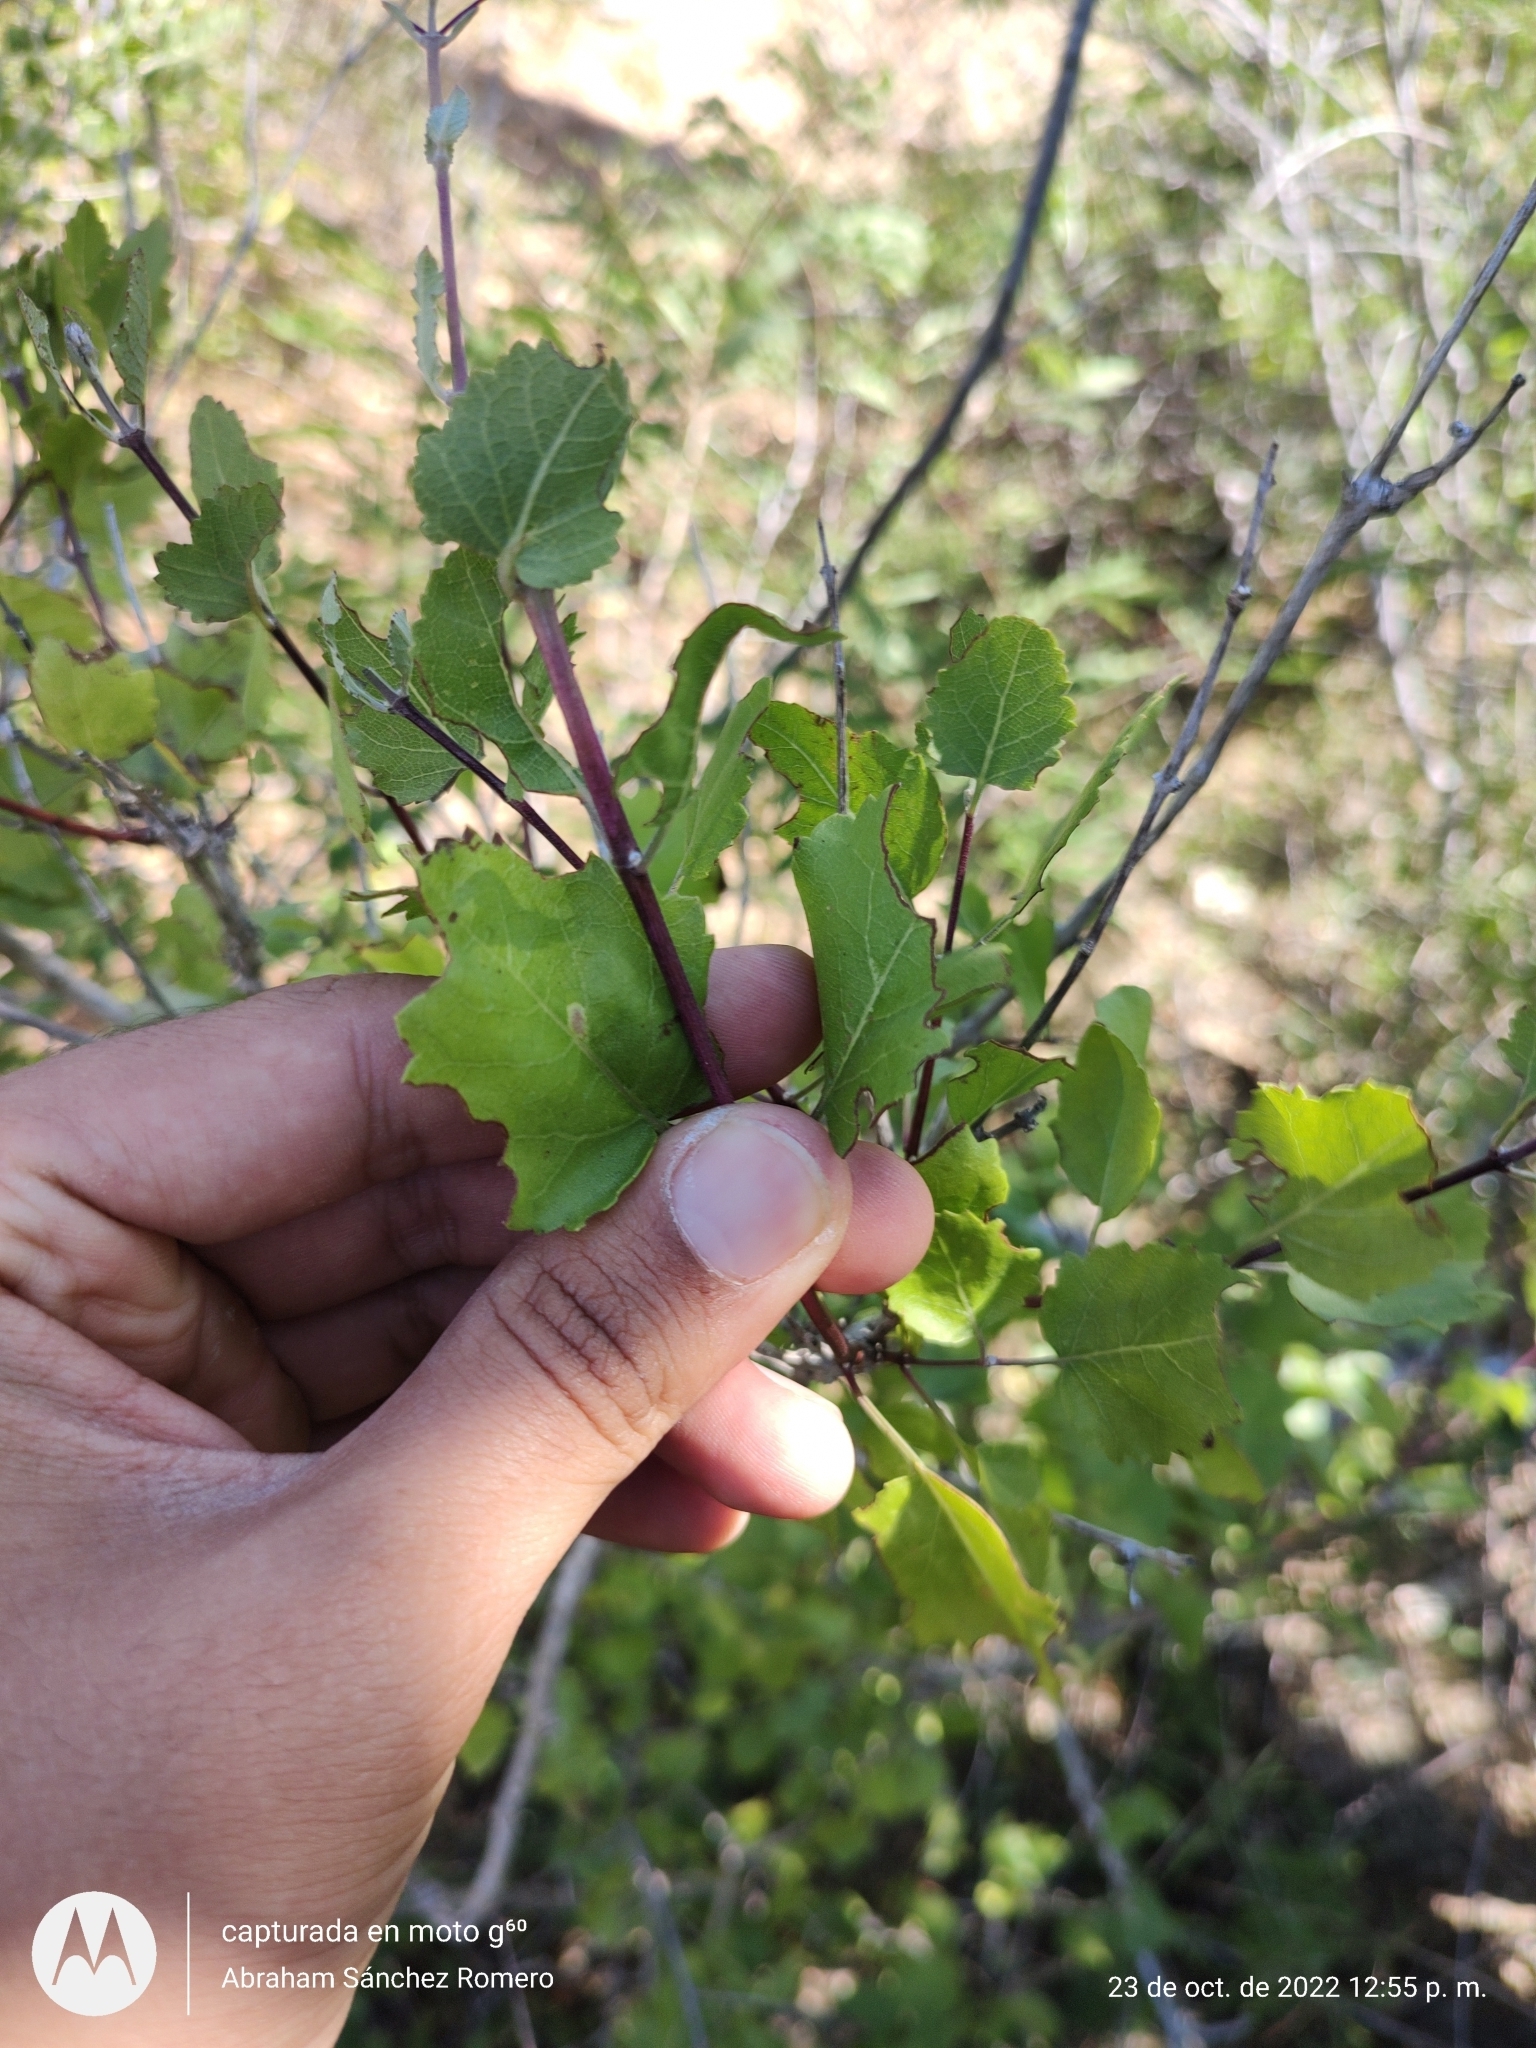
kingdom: Plantae
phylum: Tracheophyta
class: Magnoliopsida
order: Lamiales
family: Lamiaceae
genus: Condea
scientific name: Condea laniflora
